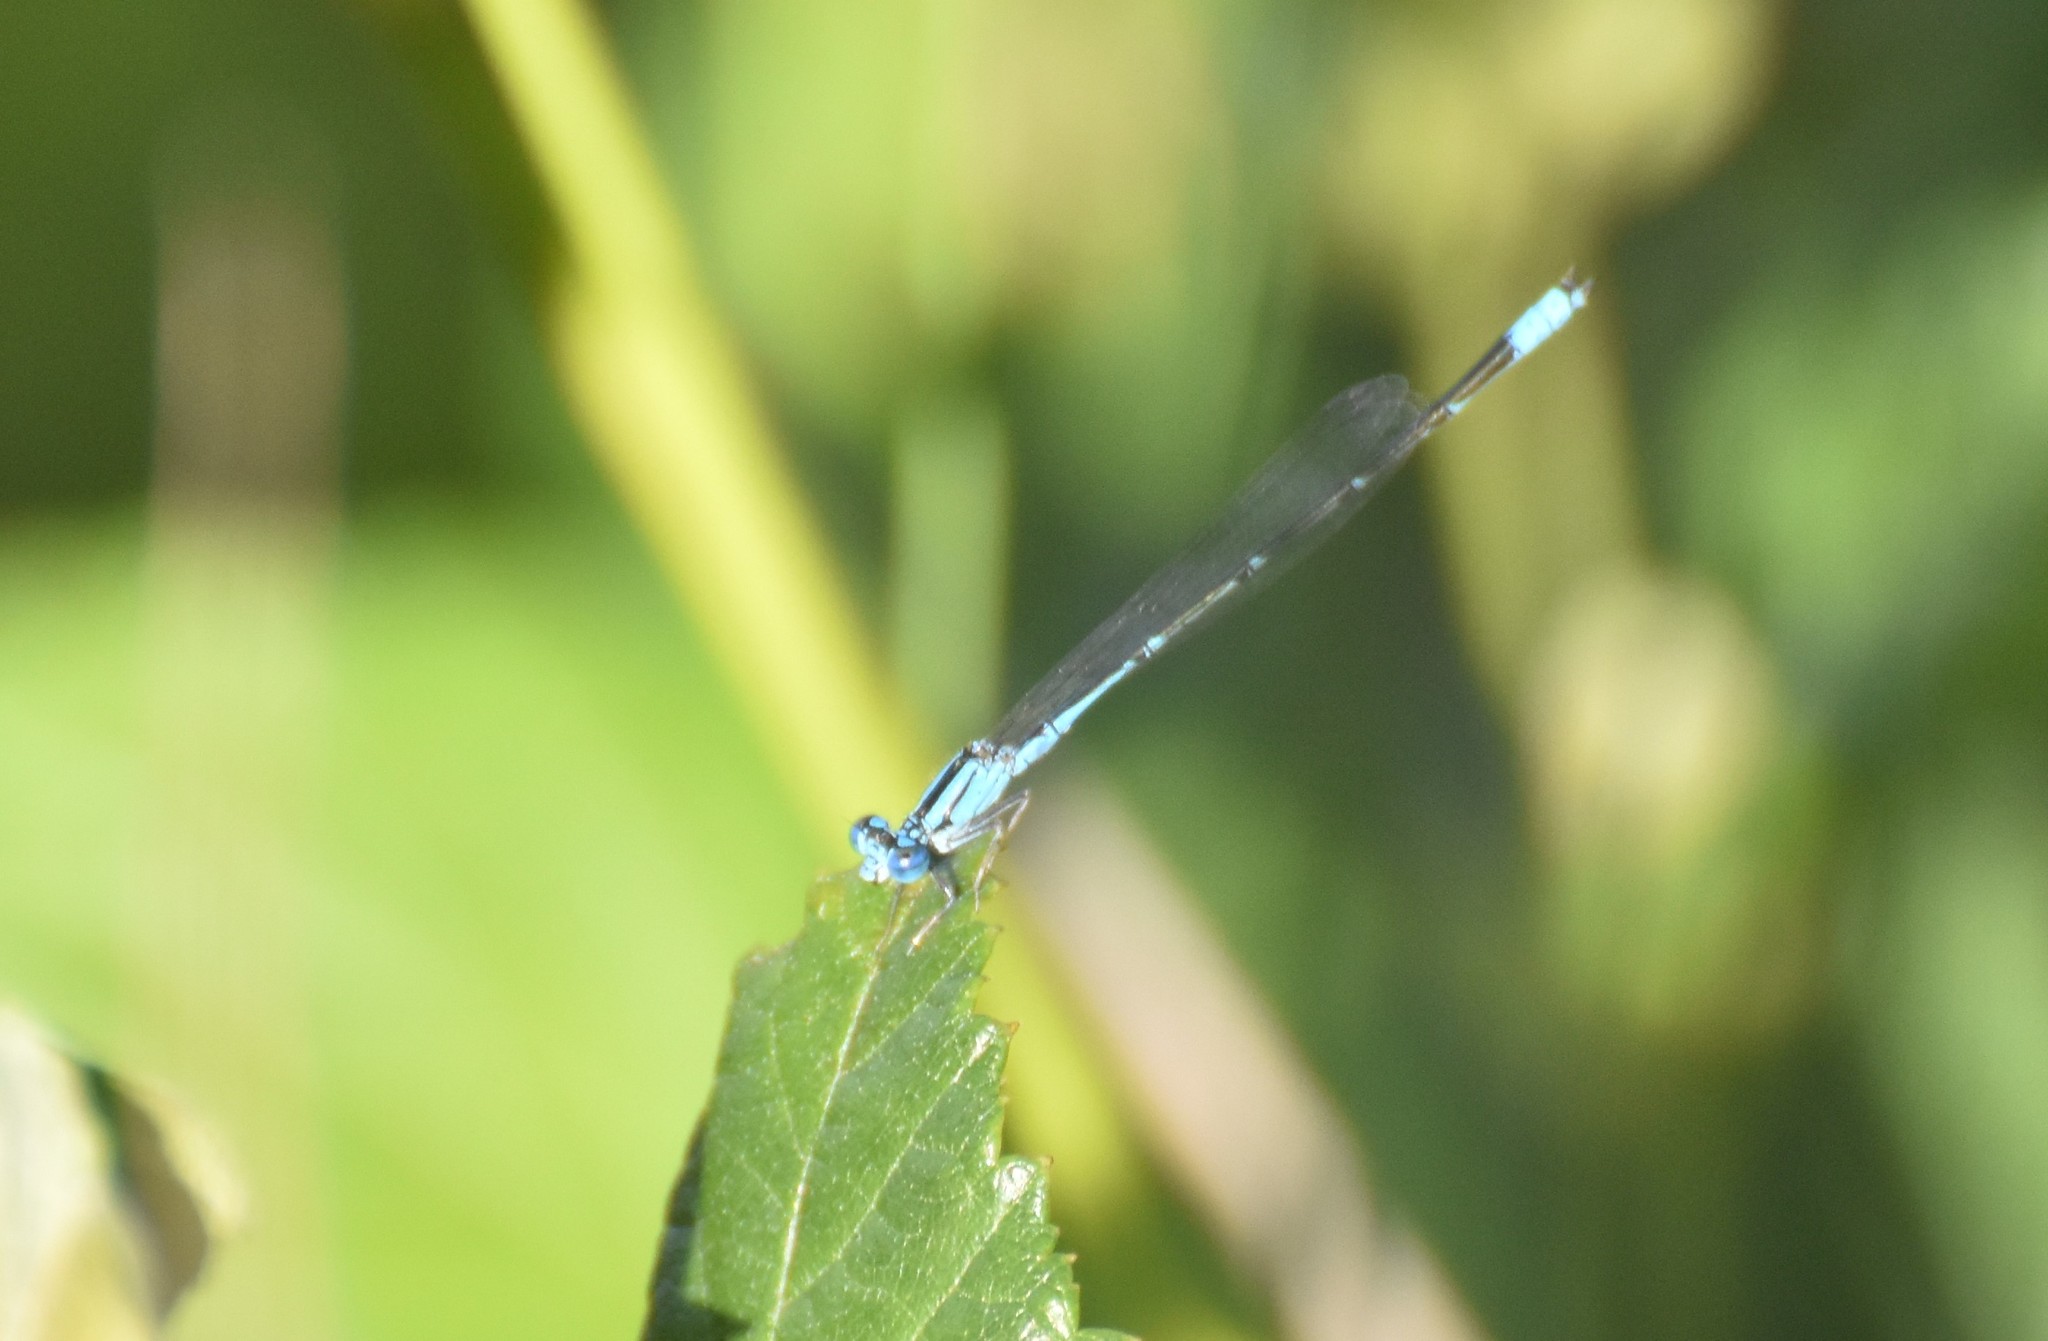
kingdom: Animalia
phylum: Arthropoda
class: Insecta
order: Odonata
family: Coenagrionidae
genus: Enallagma
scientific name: Enallagma traviatum
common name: Slender bluet
